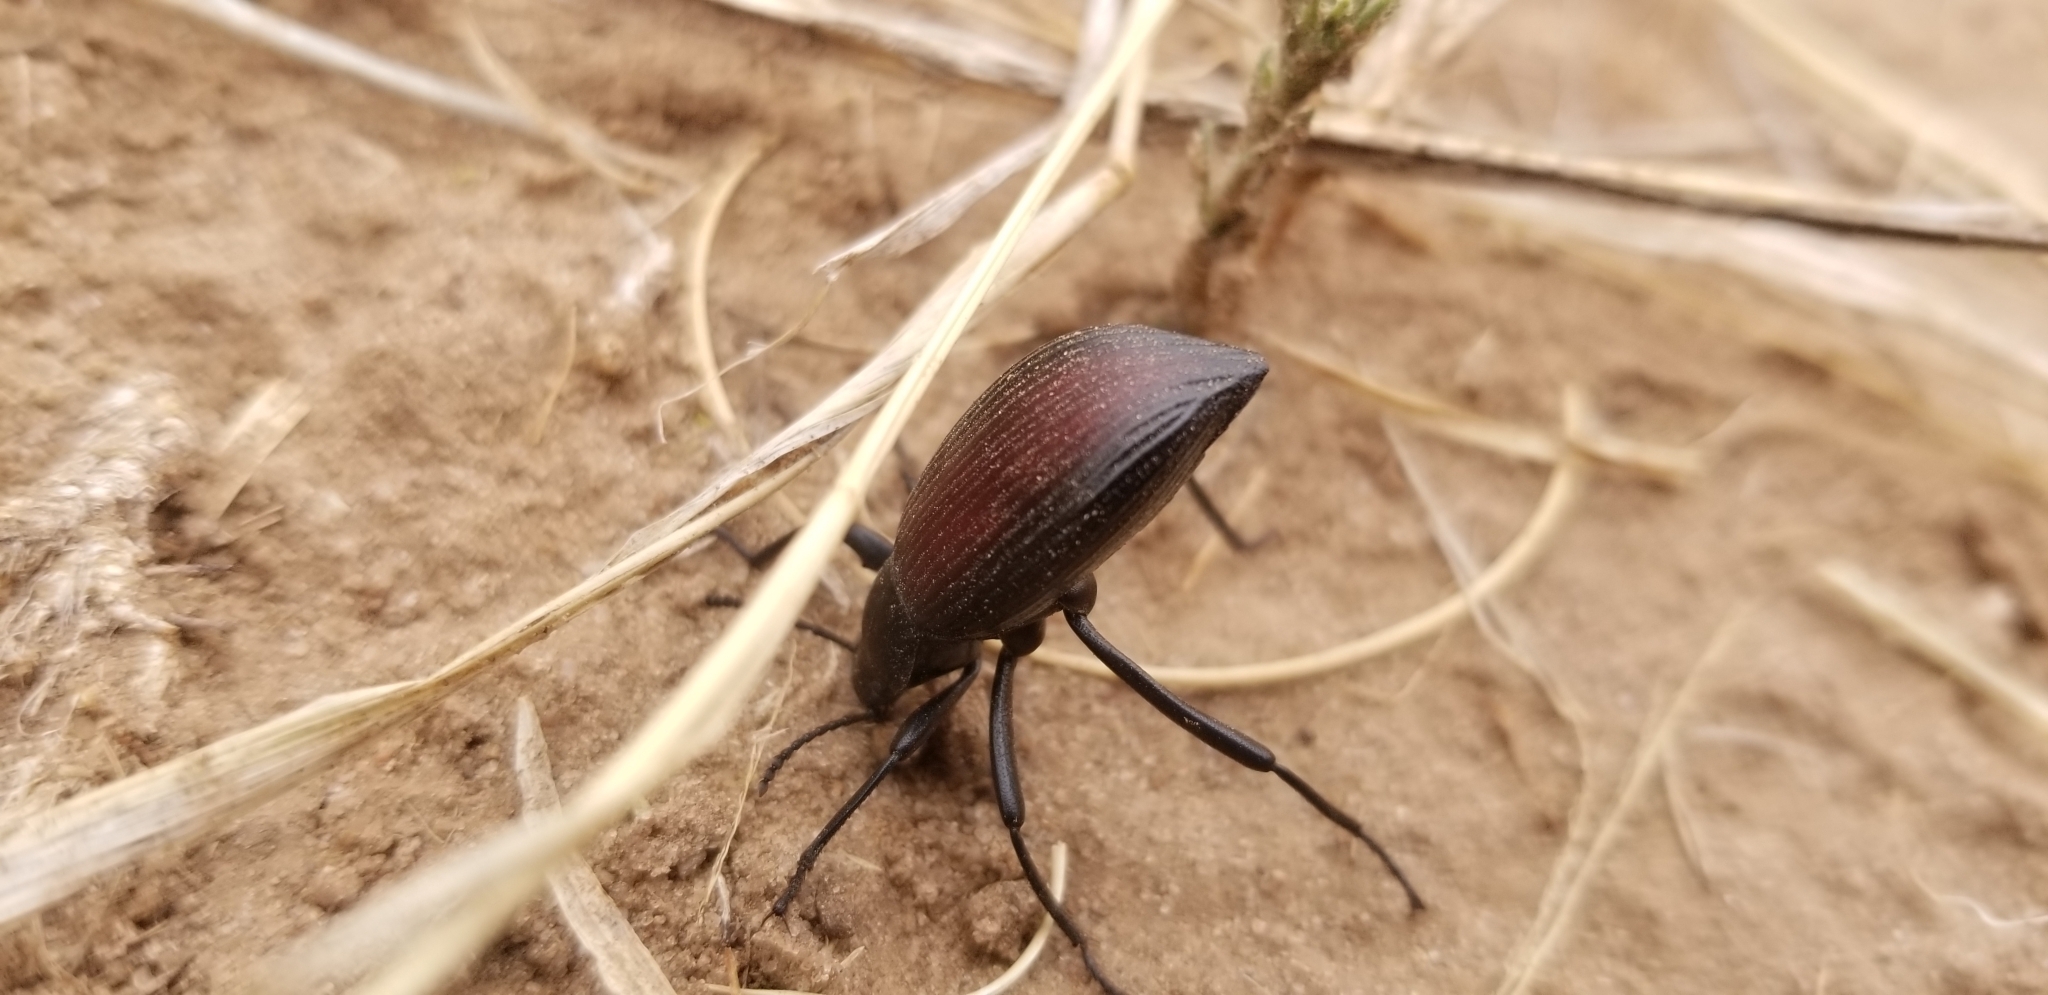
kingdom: Animalia
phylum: Arthropoda
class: Insecta
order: Coleoptera
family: Tenebrionidae
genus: Eleodes
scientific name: Eleodes hispilabris
